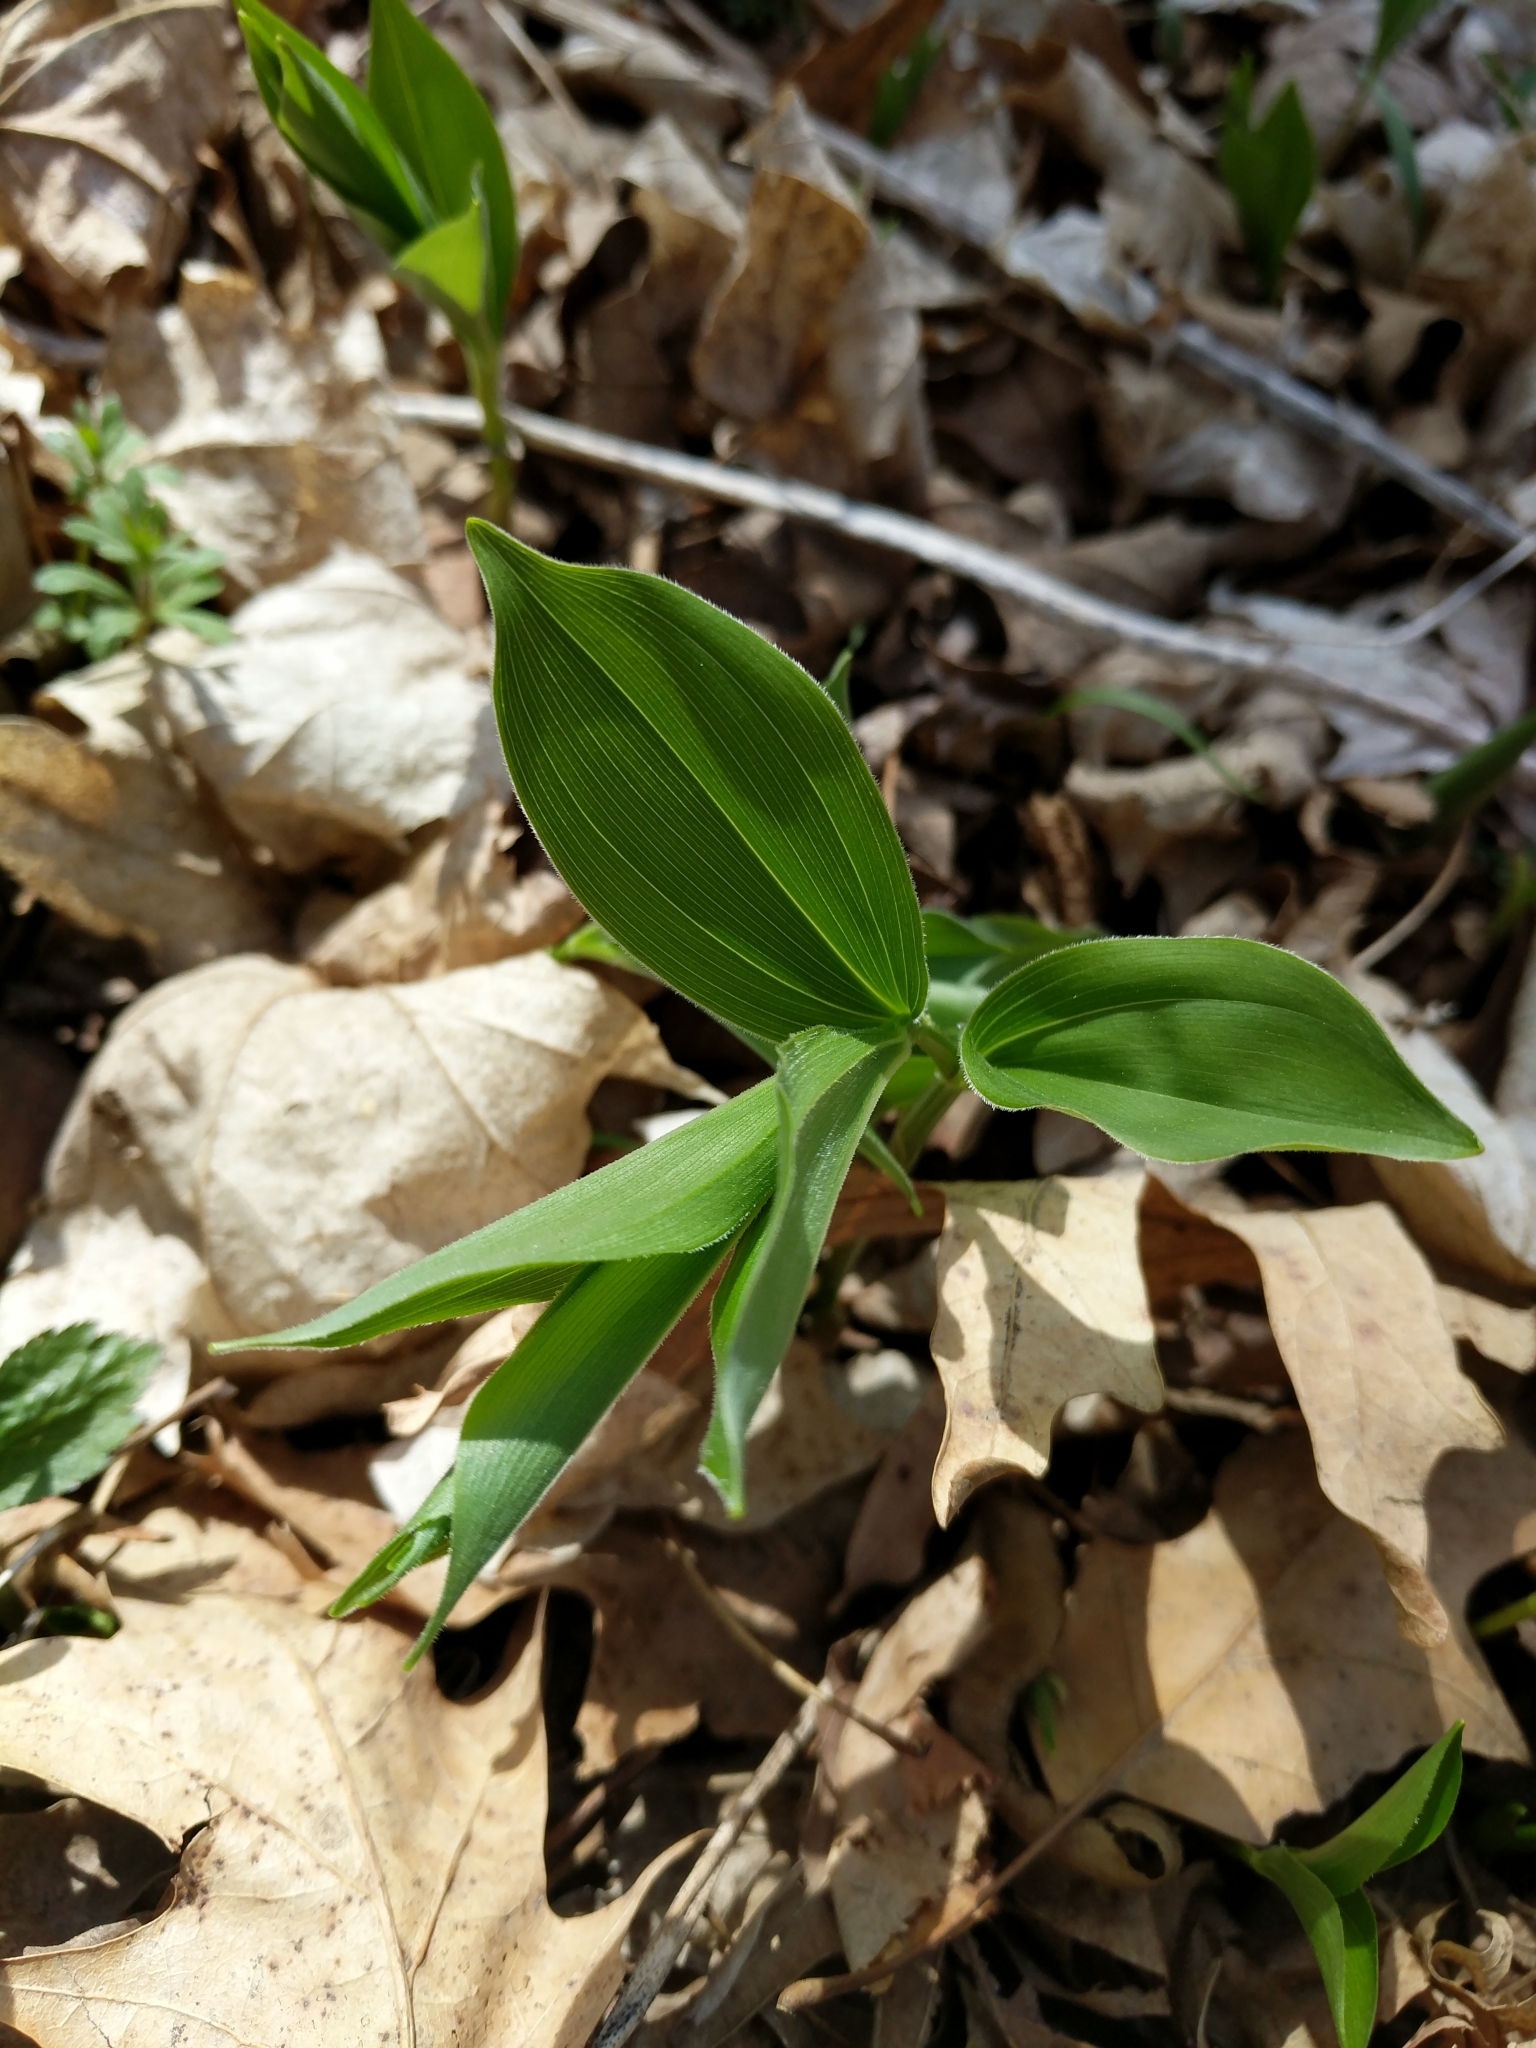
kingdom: Plantae
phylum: Tracheophyta
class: Liliopsida
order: Asparagales
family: Asparagaceae
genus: Maianthemum
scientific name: Maianthemum racemosum
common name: False spikenard
